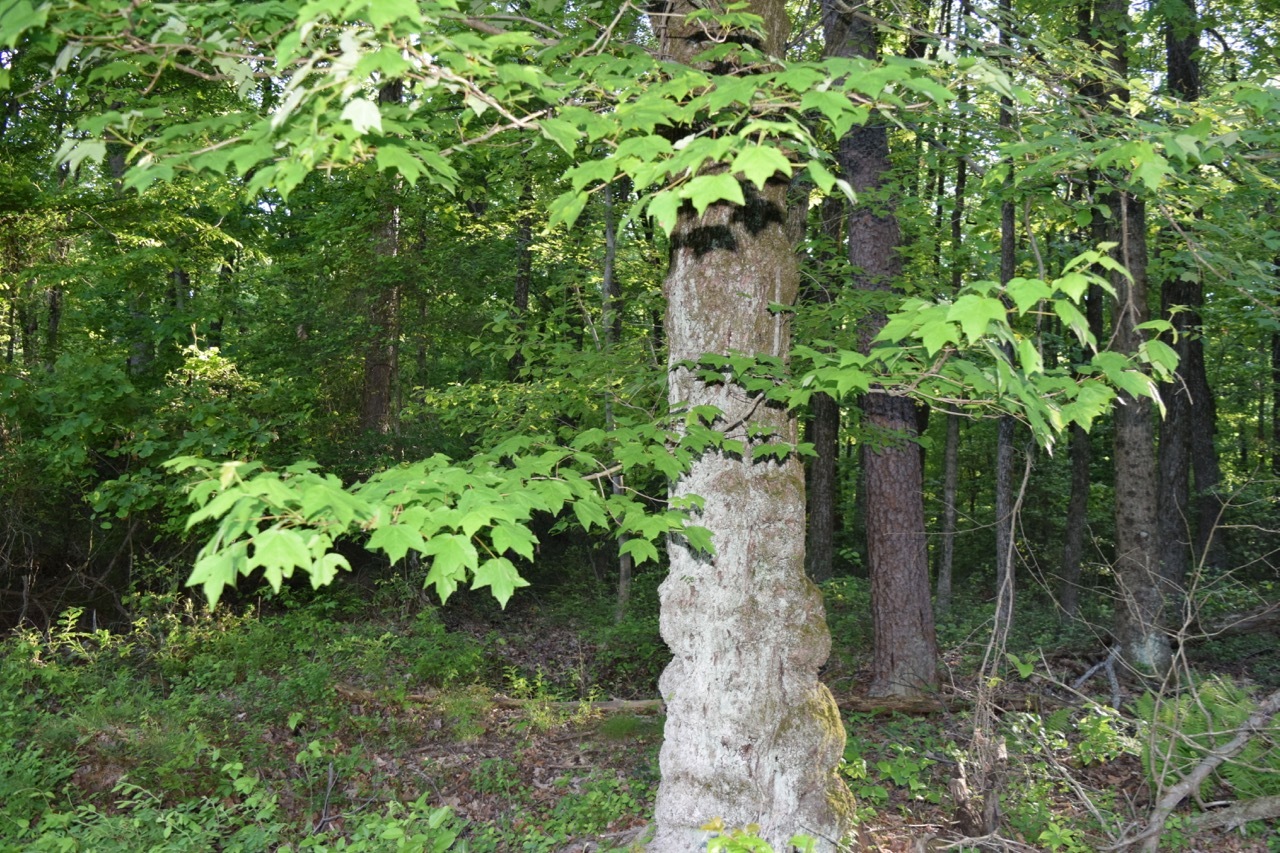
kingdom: Plantae
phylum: Tracheophyta
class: Magnoliopsida
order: Sapindales
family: Sapindaceae
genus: Acer
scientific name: Acer rubrum
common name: Red maple
